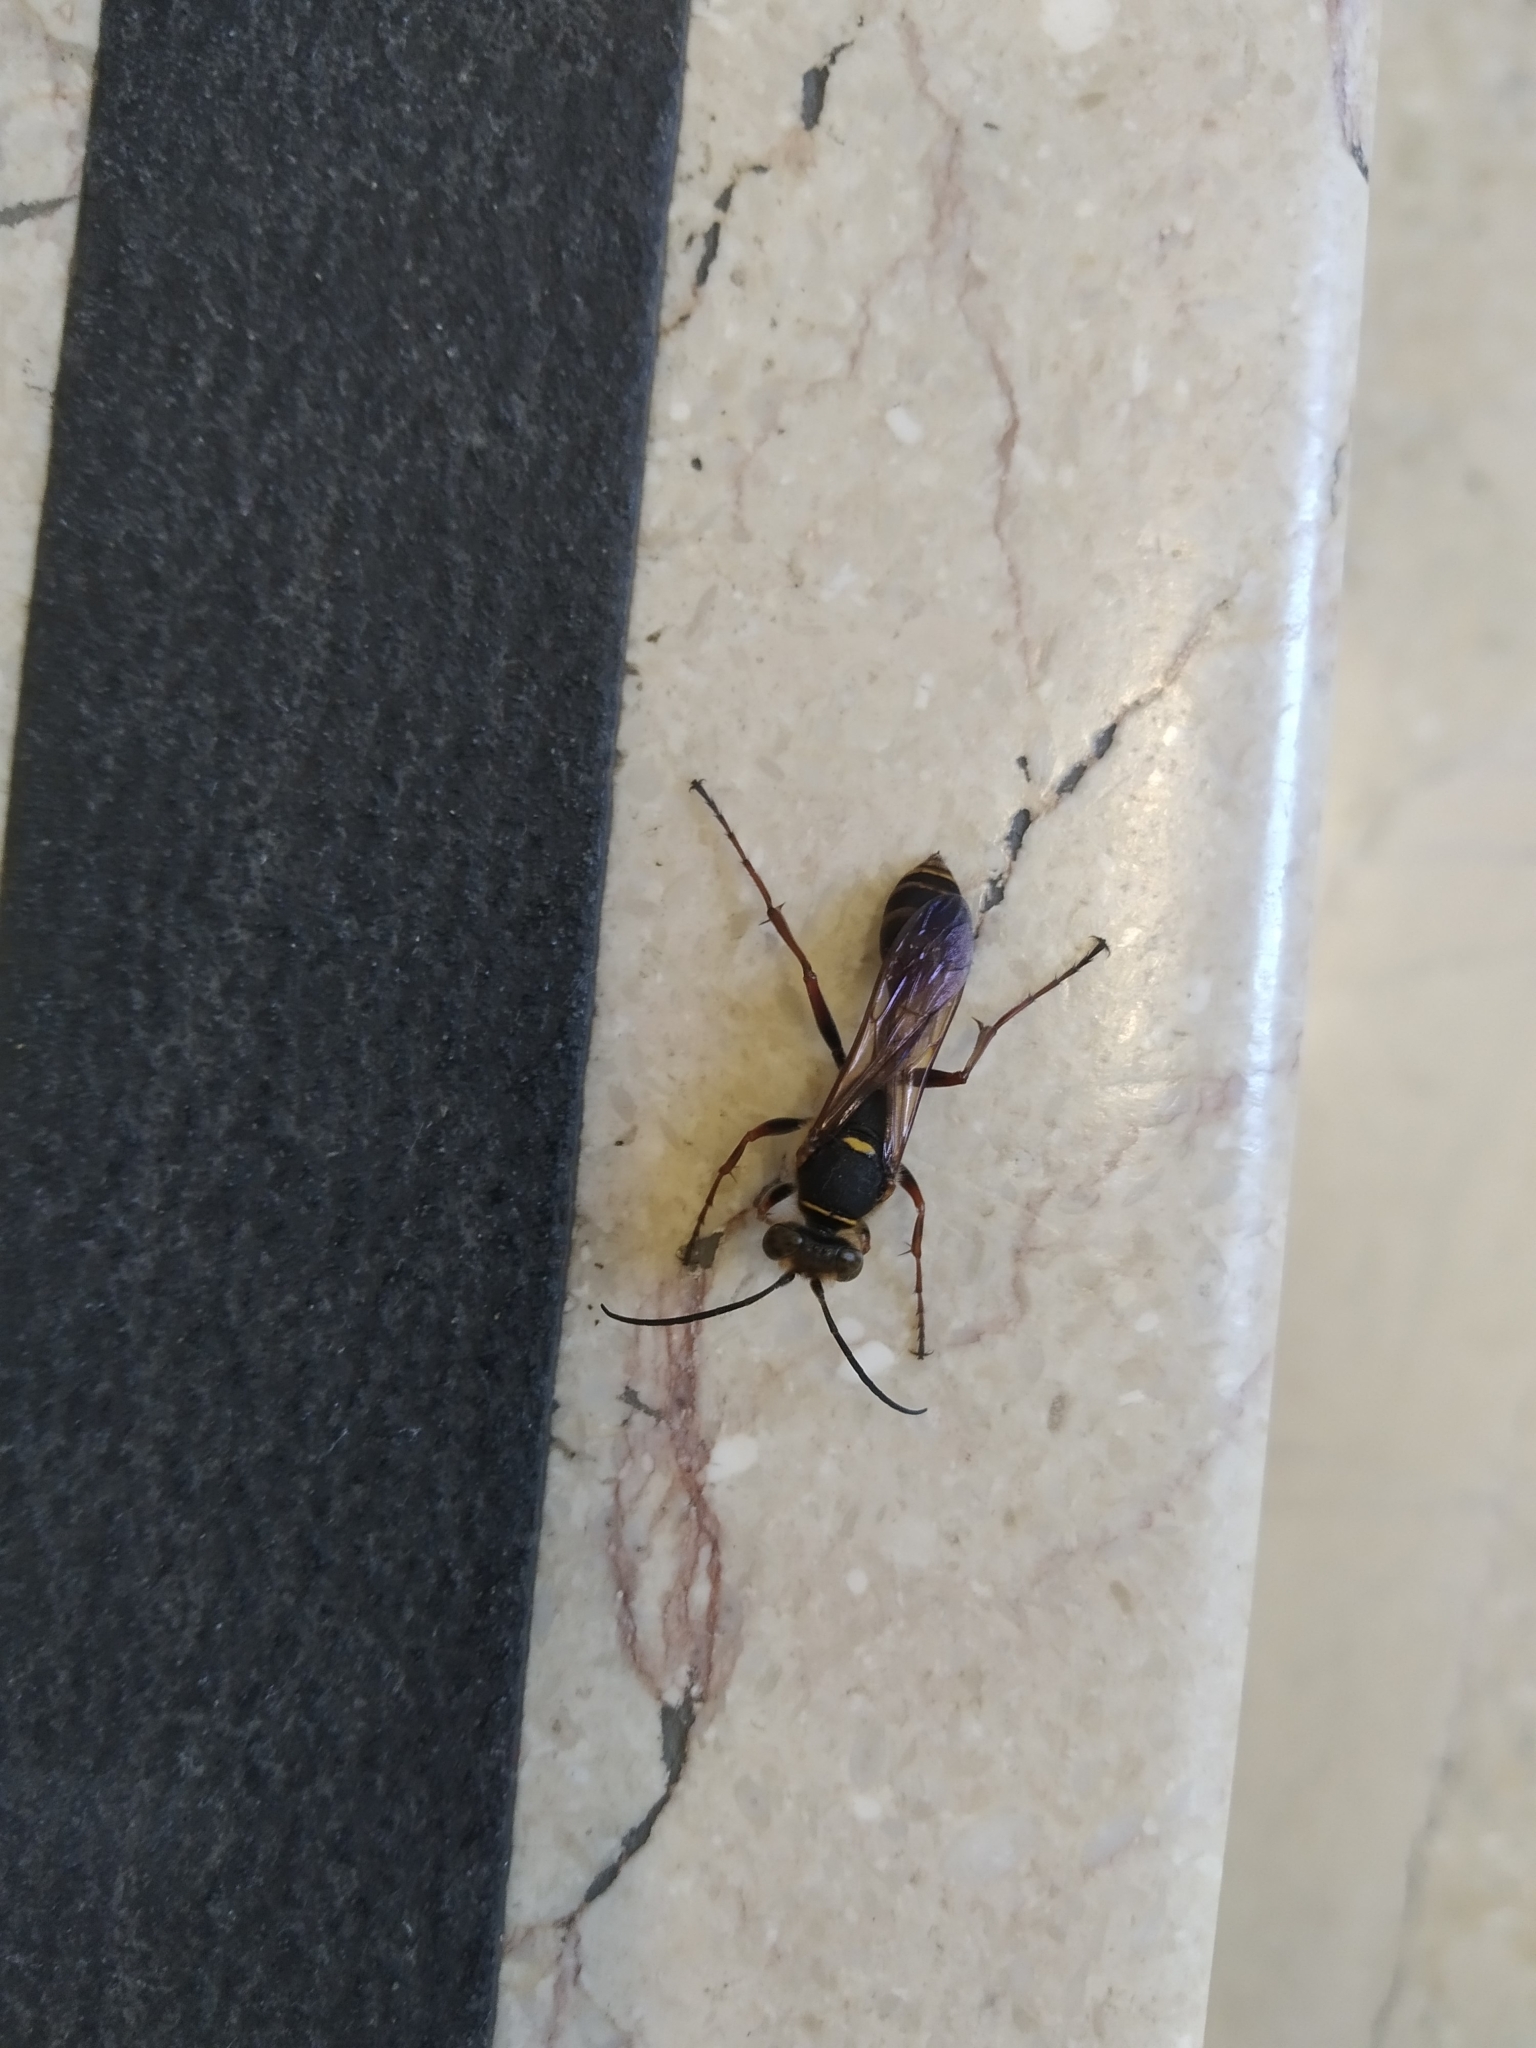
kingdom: Animalia
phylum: Arthropoda
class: Insecta
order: Hymenoptera
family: Sphecidae
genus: Sceliphron
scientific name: Sceliphron curvatum
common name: Pèlopèe
